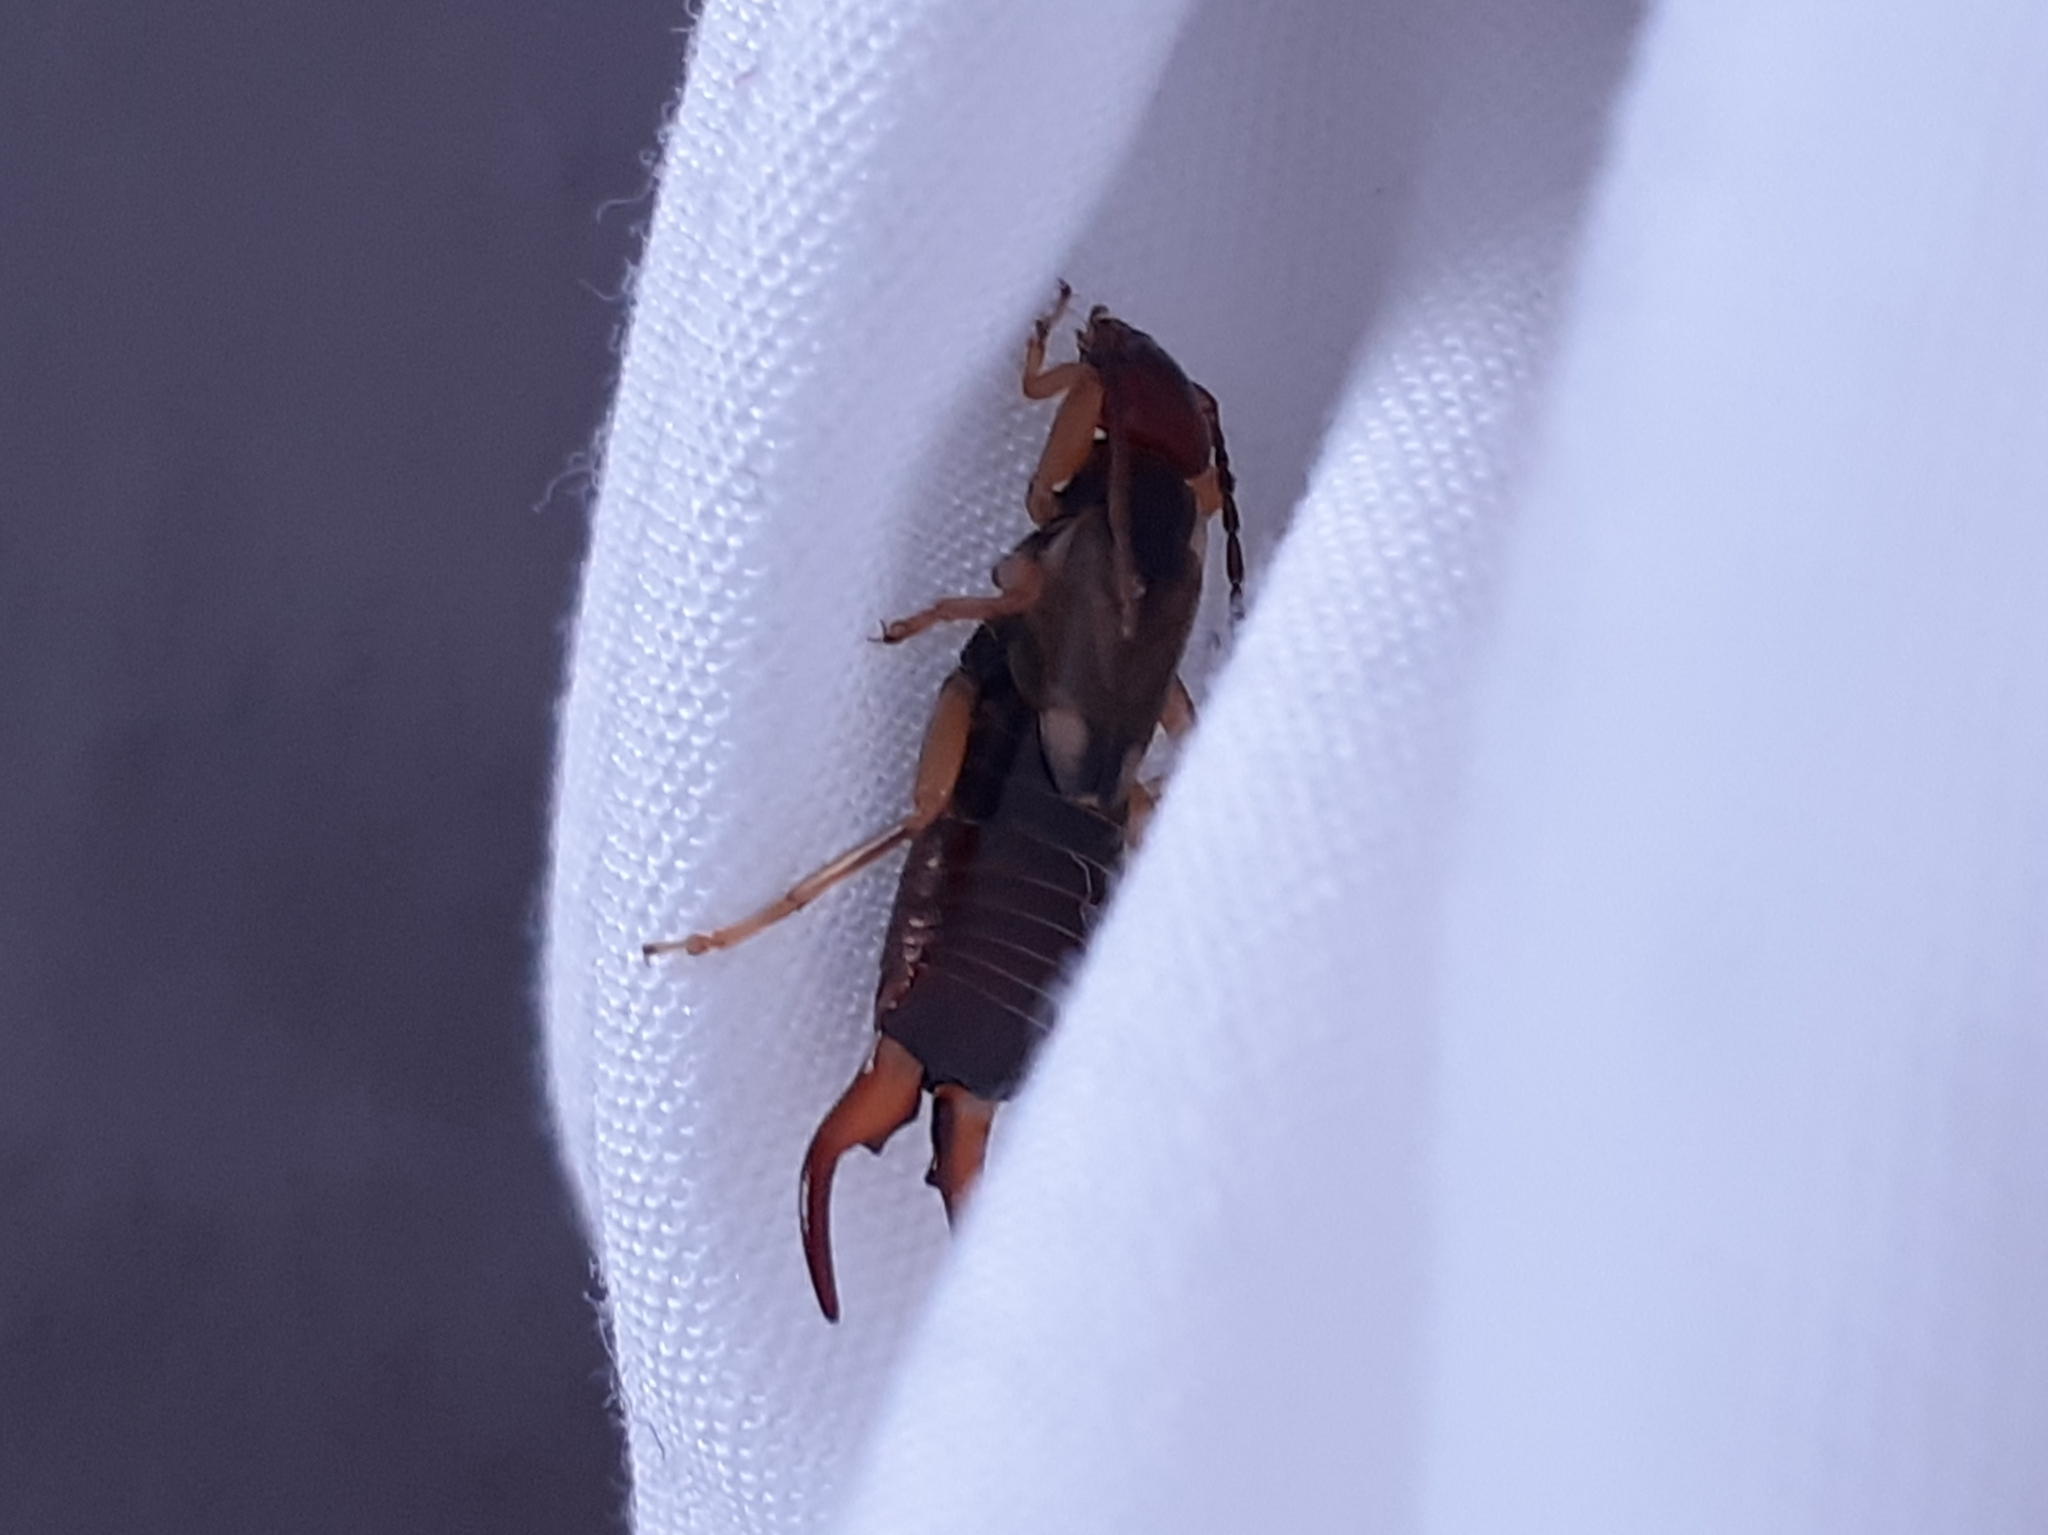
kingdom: Animalia
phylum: Arthropoda
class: Insecta
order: Dermaptera
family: Forficulidae
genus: Forficula
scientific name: Forficula
